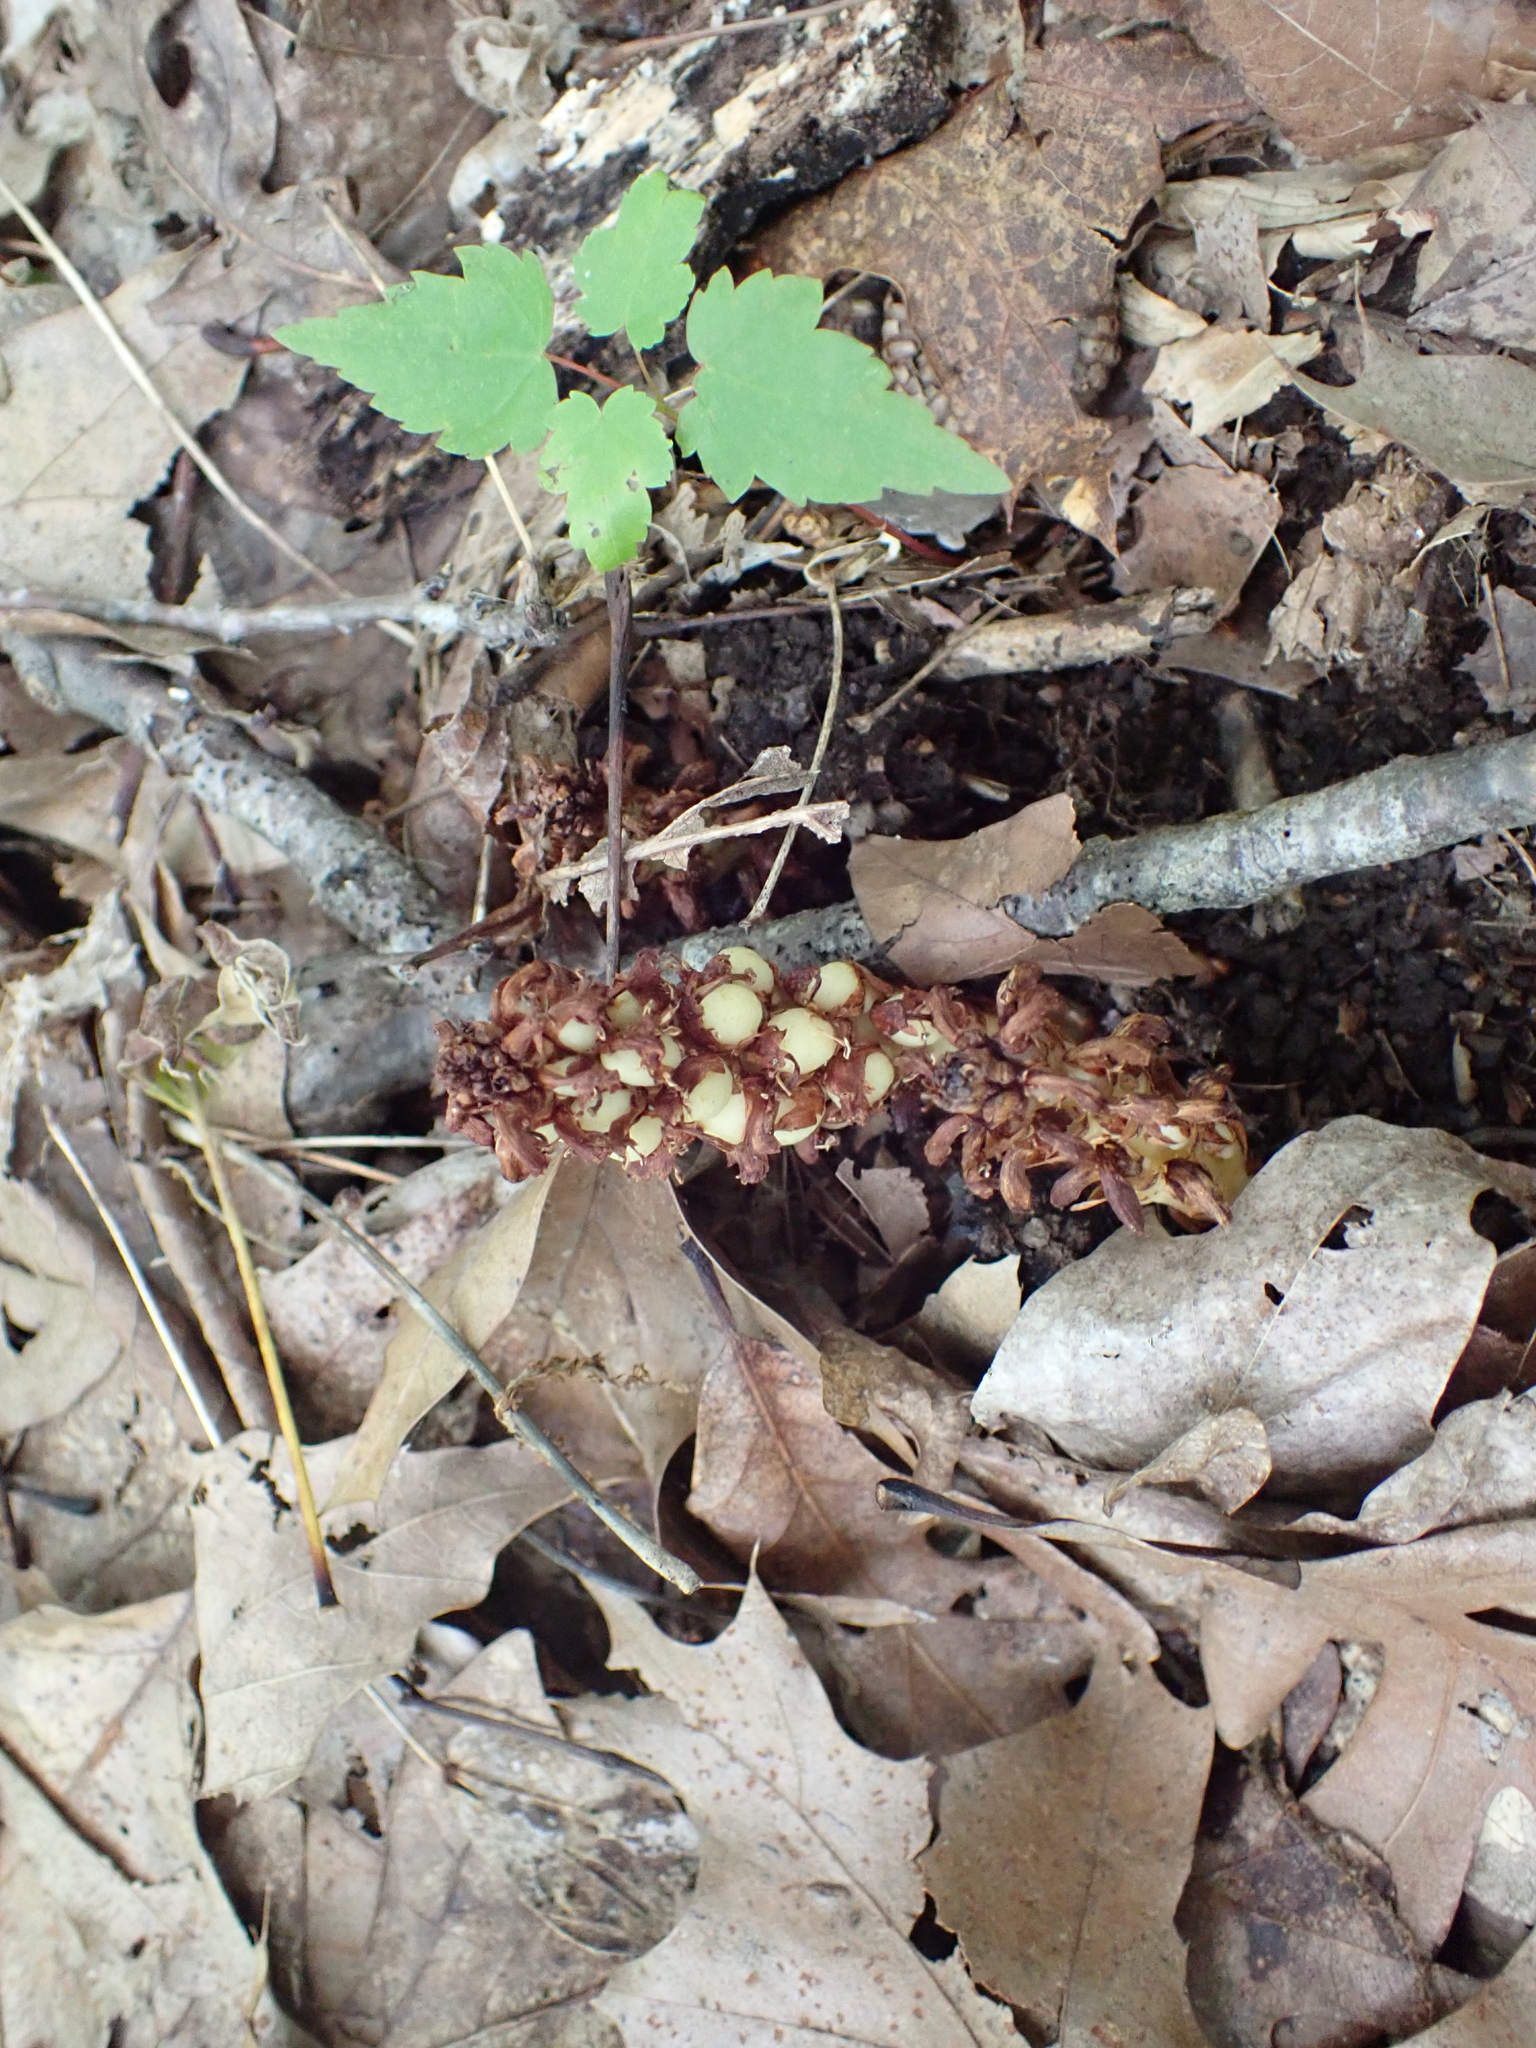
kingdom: Plantae
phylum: Tracheophyta
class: Magnoliopsida
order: Lamiales
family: Orobanchaceae
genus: Conopholis
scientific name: Conopholis americana
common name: American cancer-root
